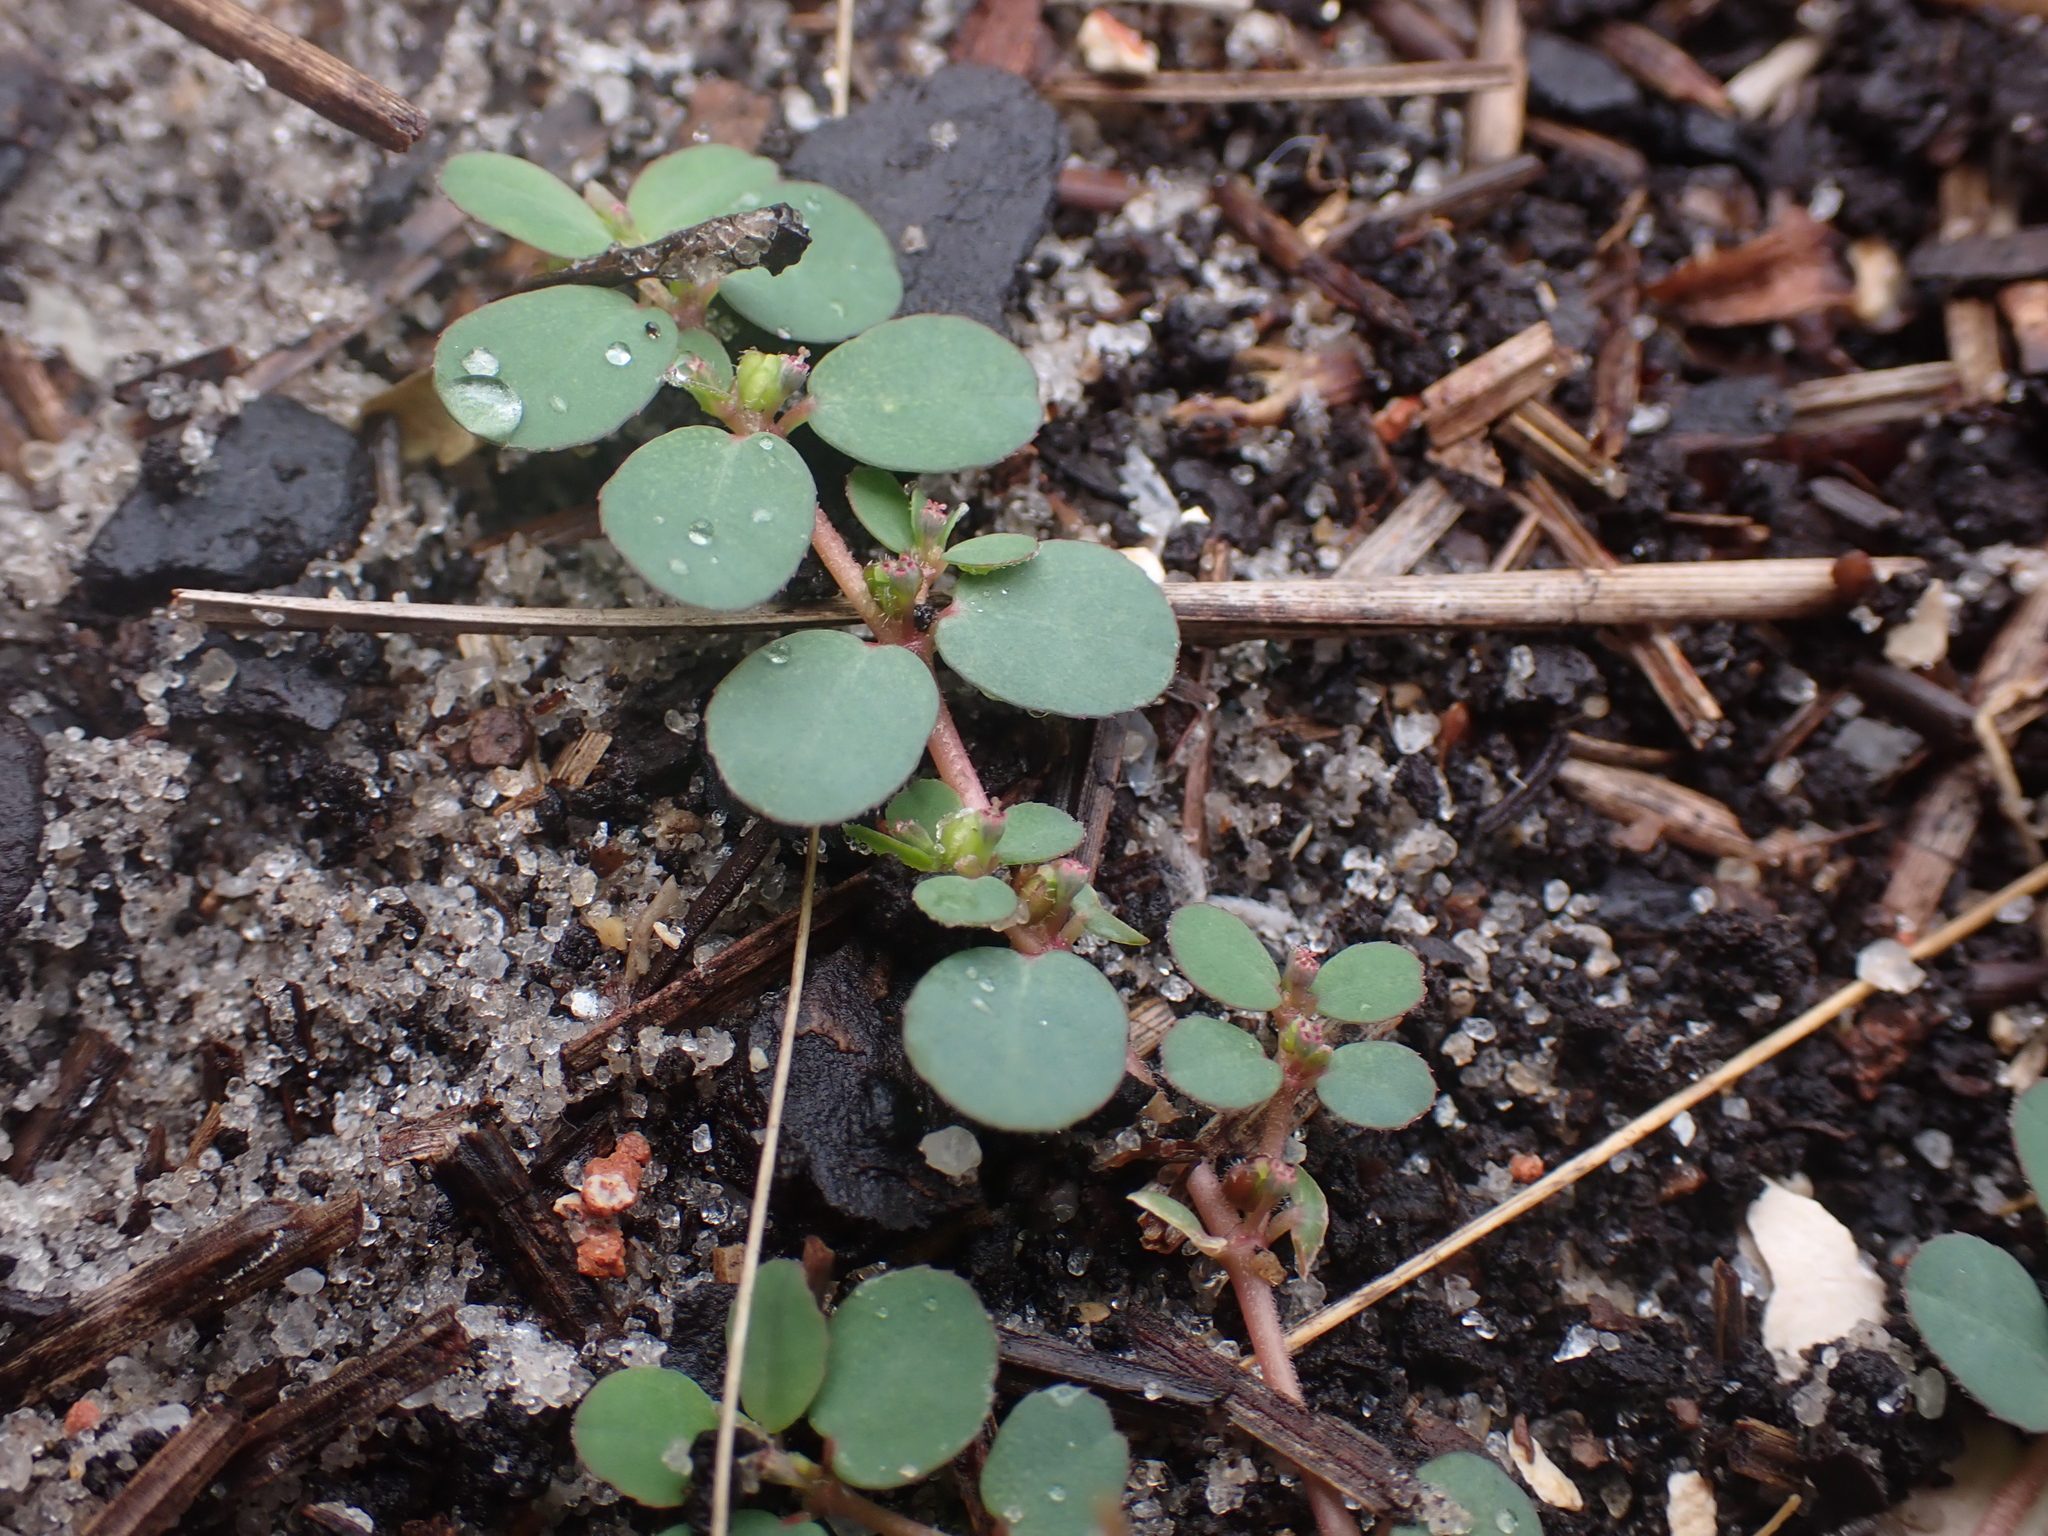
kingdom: Plantae
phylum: Tracheophyta
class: Magnoliopsida
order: Malpighiales
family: Euphorbiaceae
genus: Euphorbia
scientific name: Euphorbia prostrata
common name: Prostrate sandmat
